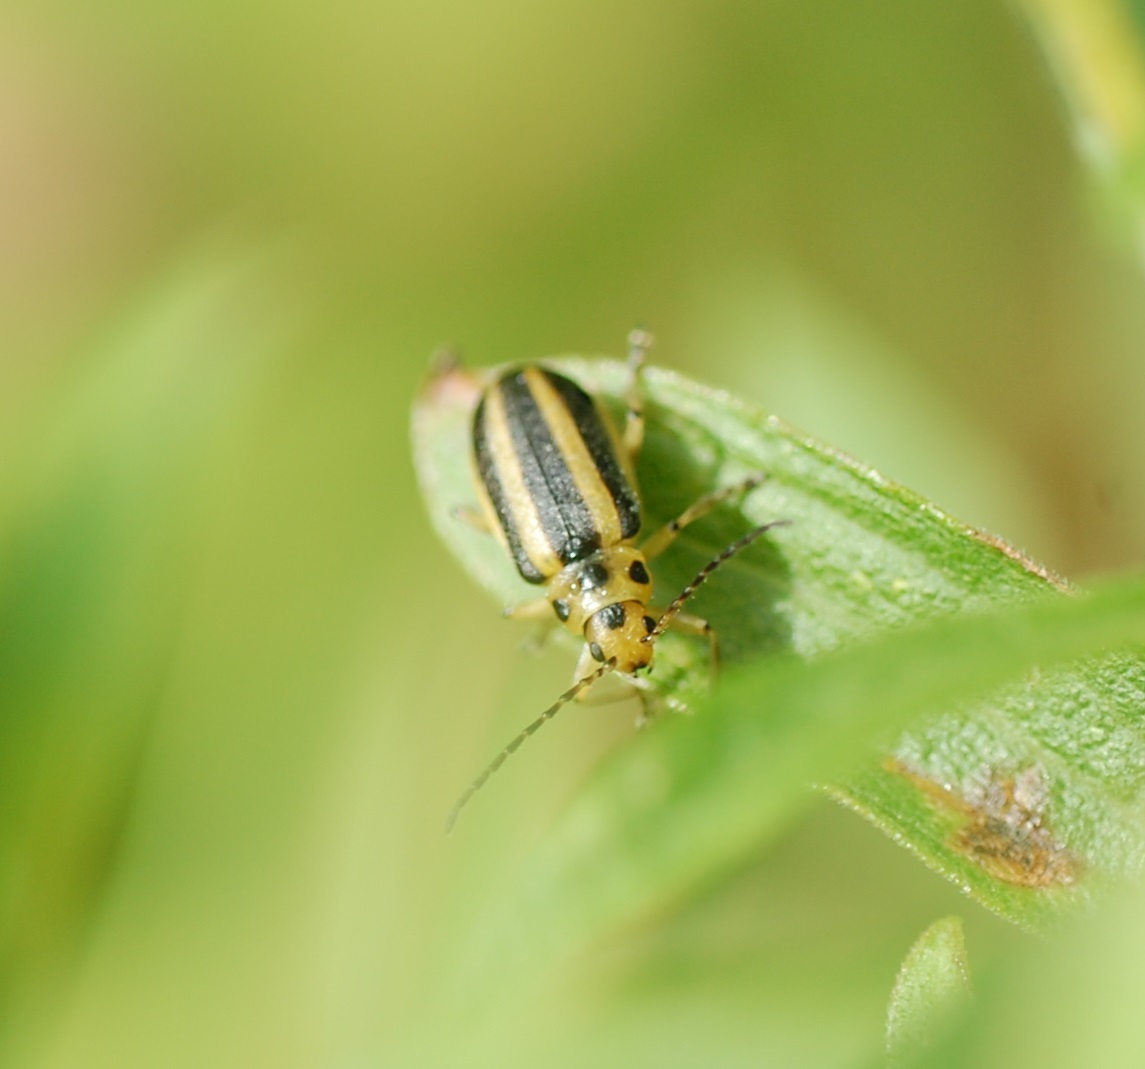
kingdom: Animalia
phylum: Arthropoda
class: Insecta
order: Coleoptera
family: Chrysomelidae
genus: Trirhabda
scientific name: Trirhabda canadensis
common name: Goldenrod leaf beetle
